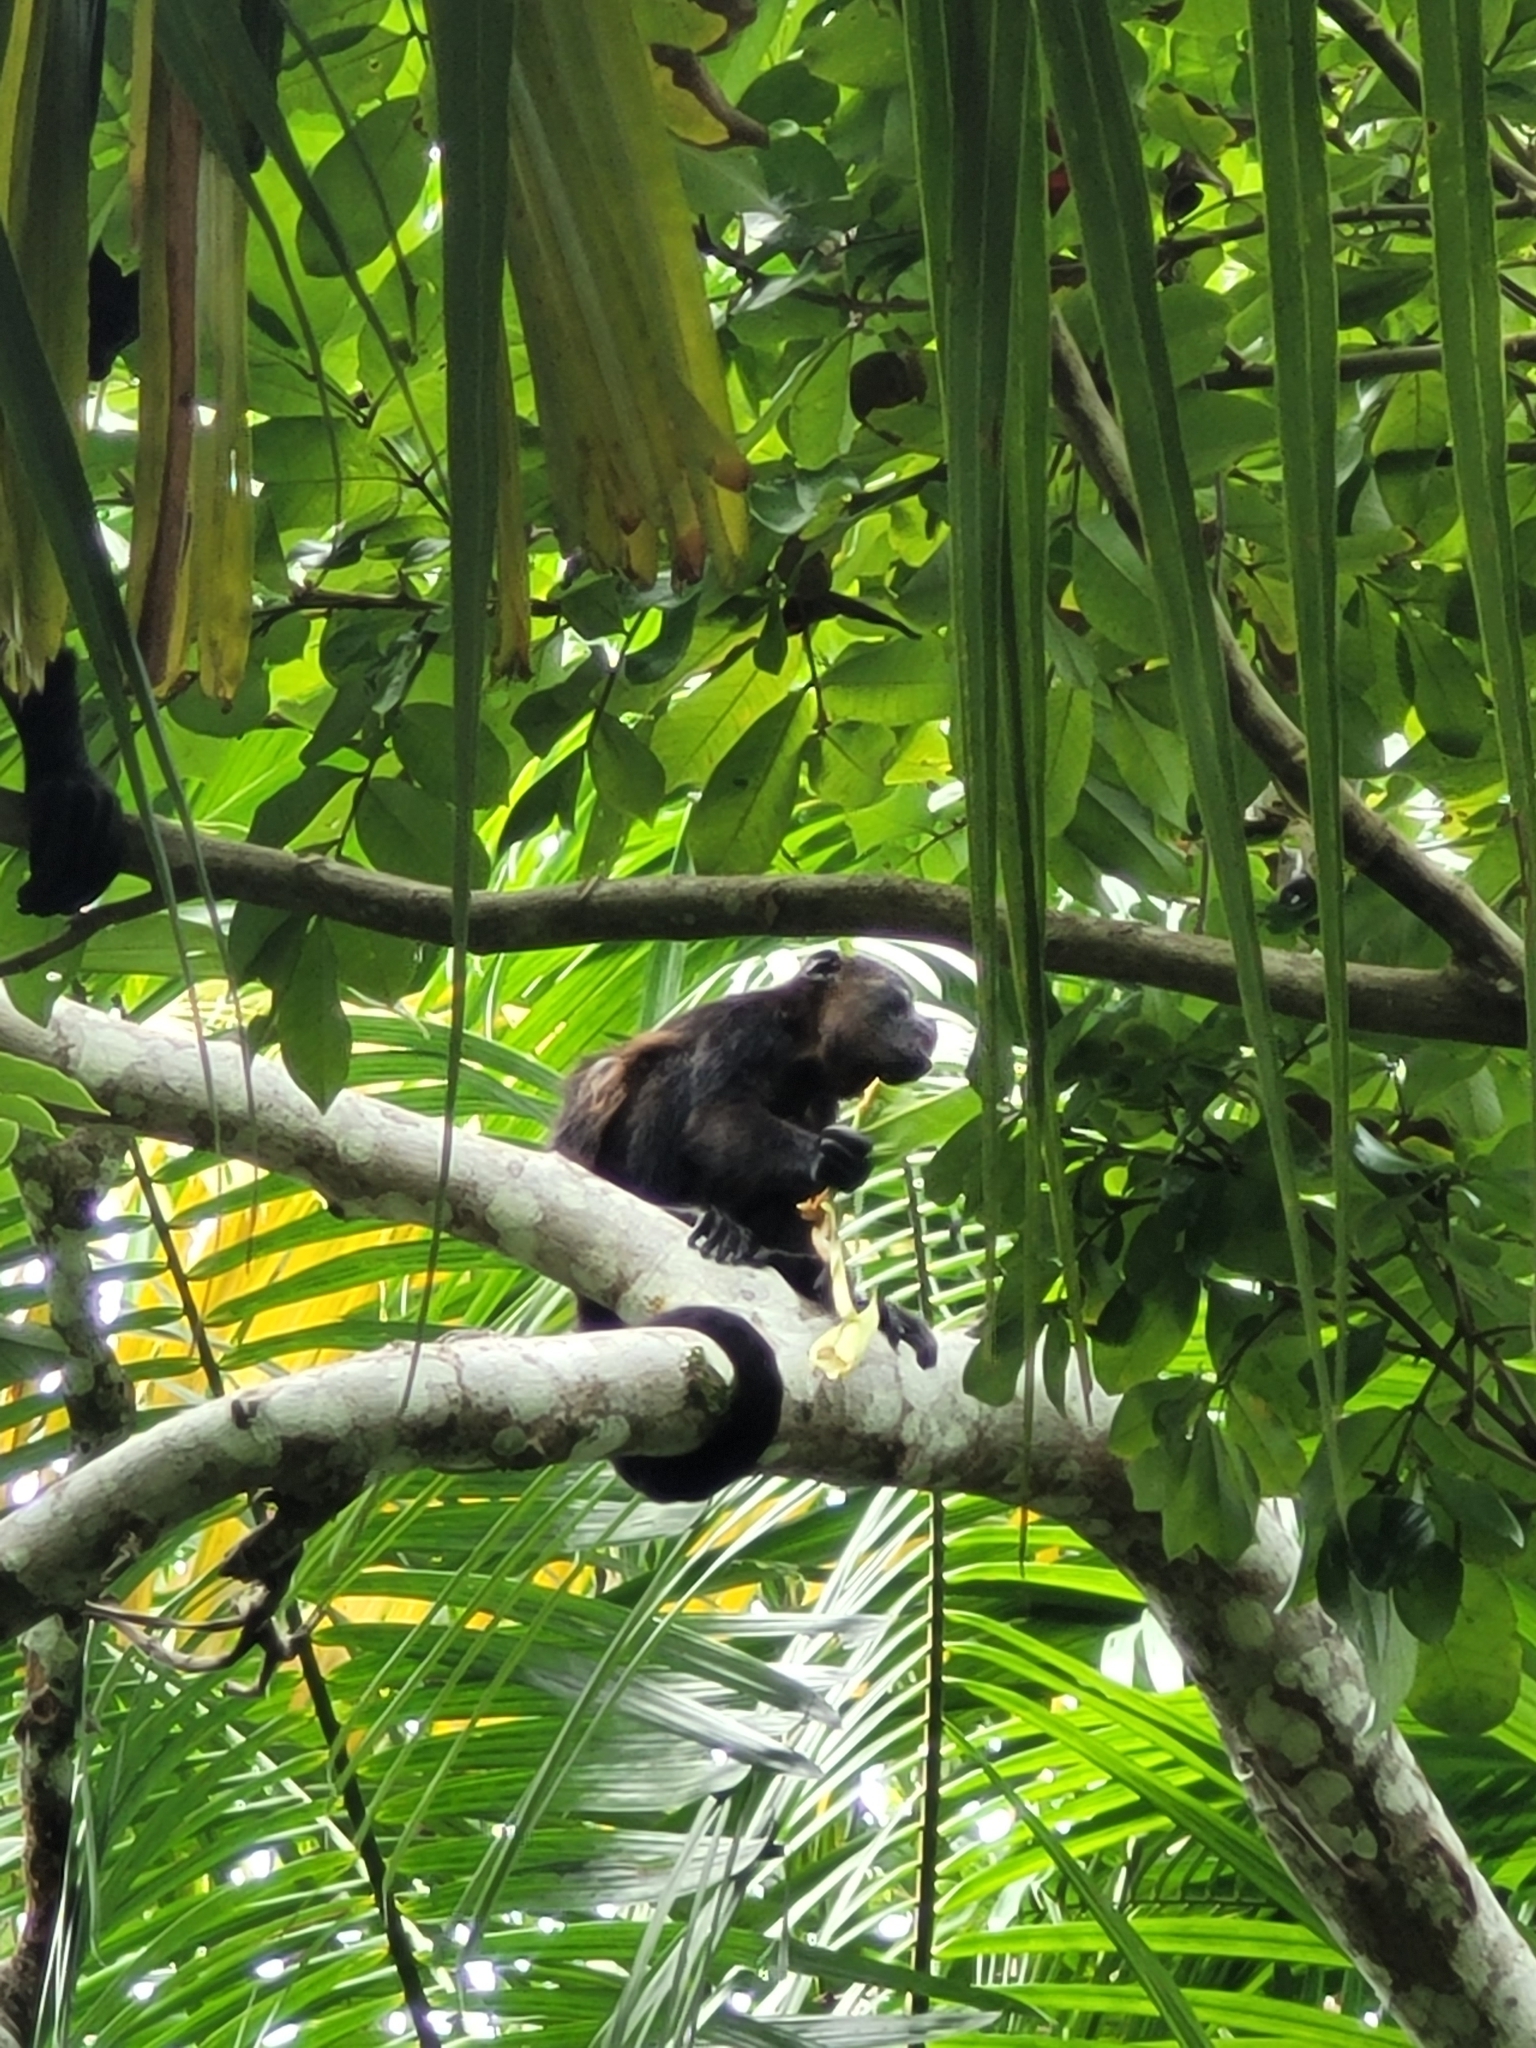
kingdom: Animalia
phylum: Chordata
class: Mammalia
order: Primates
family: Atelidae
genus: Alouatta
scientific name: Alouatta palliata
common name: Mantled howler
